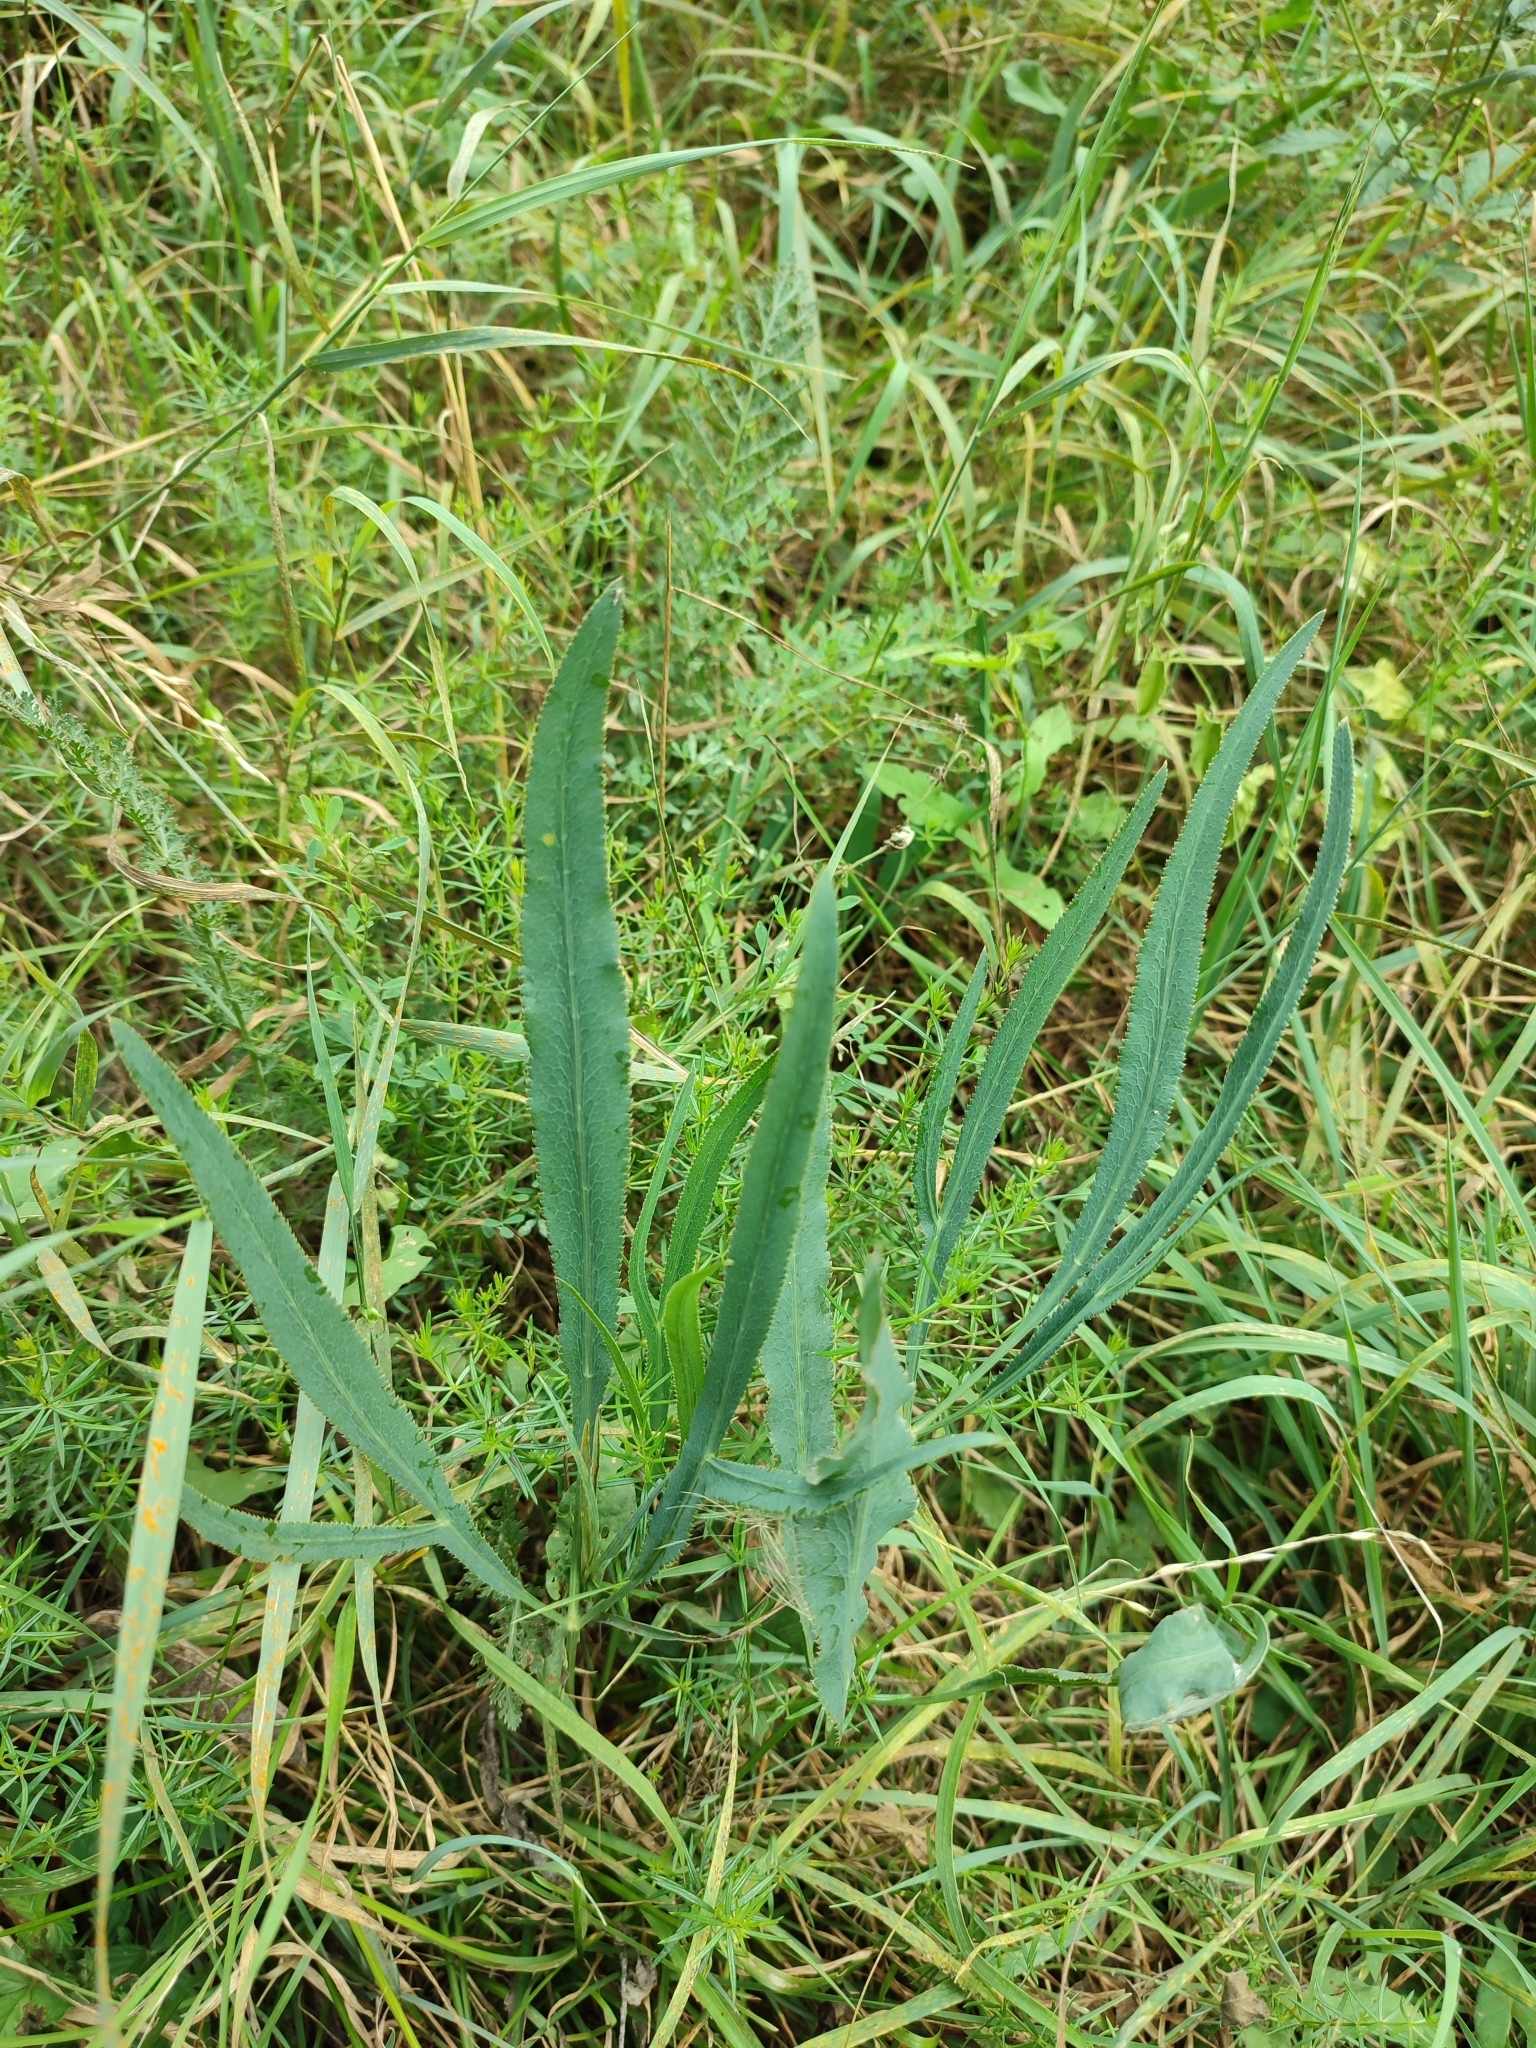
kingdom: Plantae
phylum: Tracheophyta
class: Magnoliopsida
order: Apiales
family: Apiaceae
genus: Falcaria
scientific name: Falcaria vulgaris
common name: Longleaf
